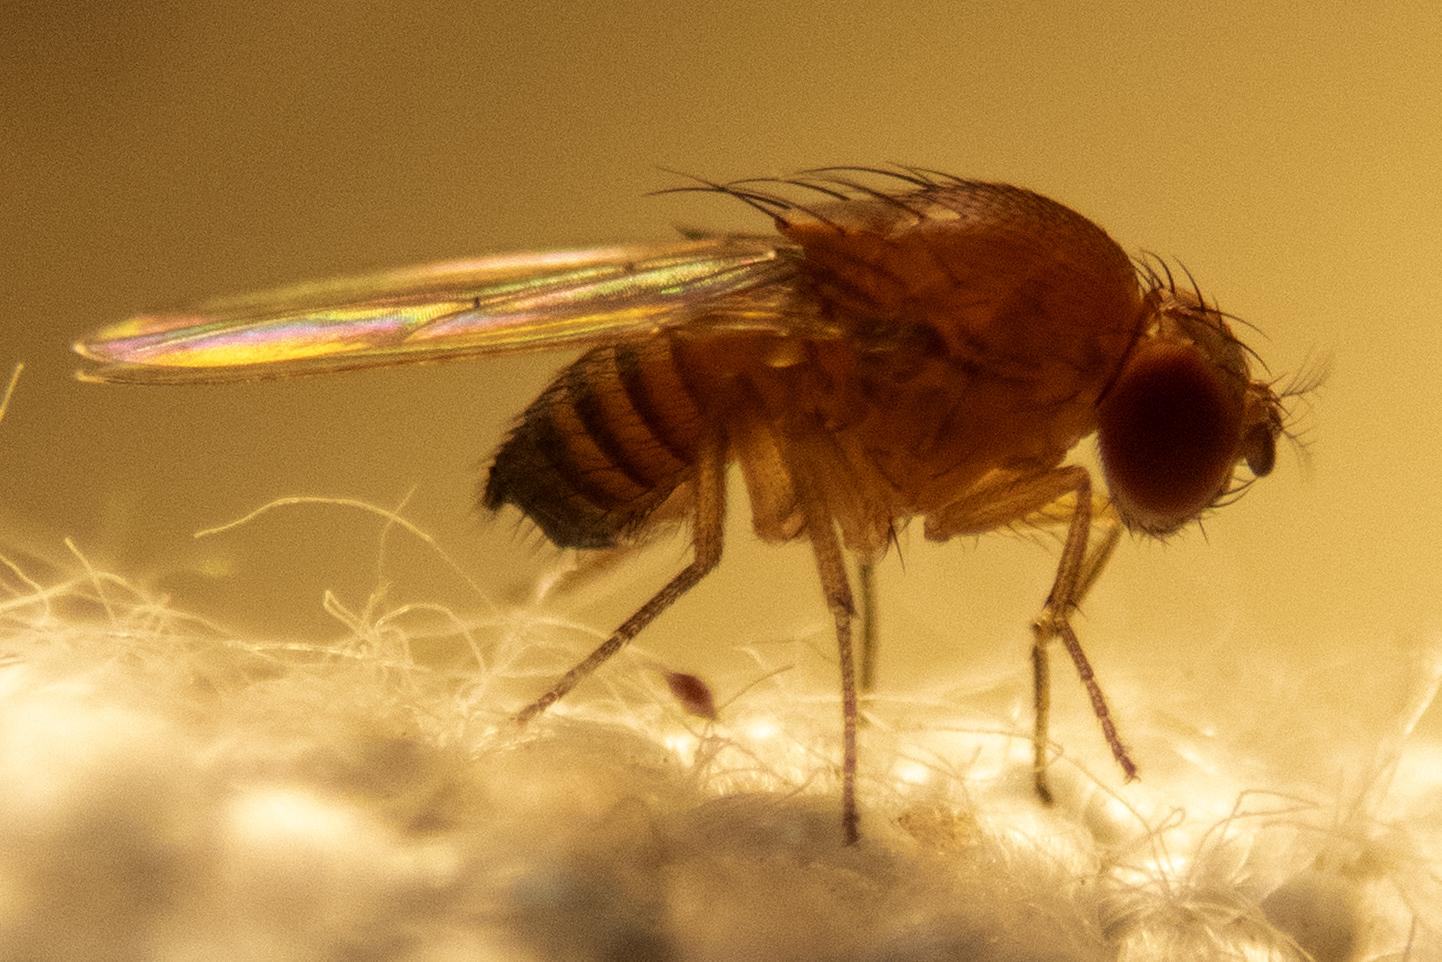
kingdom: Animalia
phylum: Arthropoda
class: Insecta
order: Diptera
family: Drosophilidae
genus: Drosophila
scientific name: Drosophila suzukii
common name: Spotted-wing drosophila
